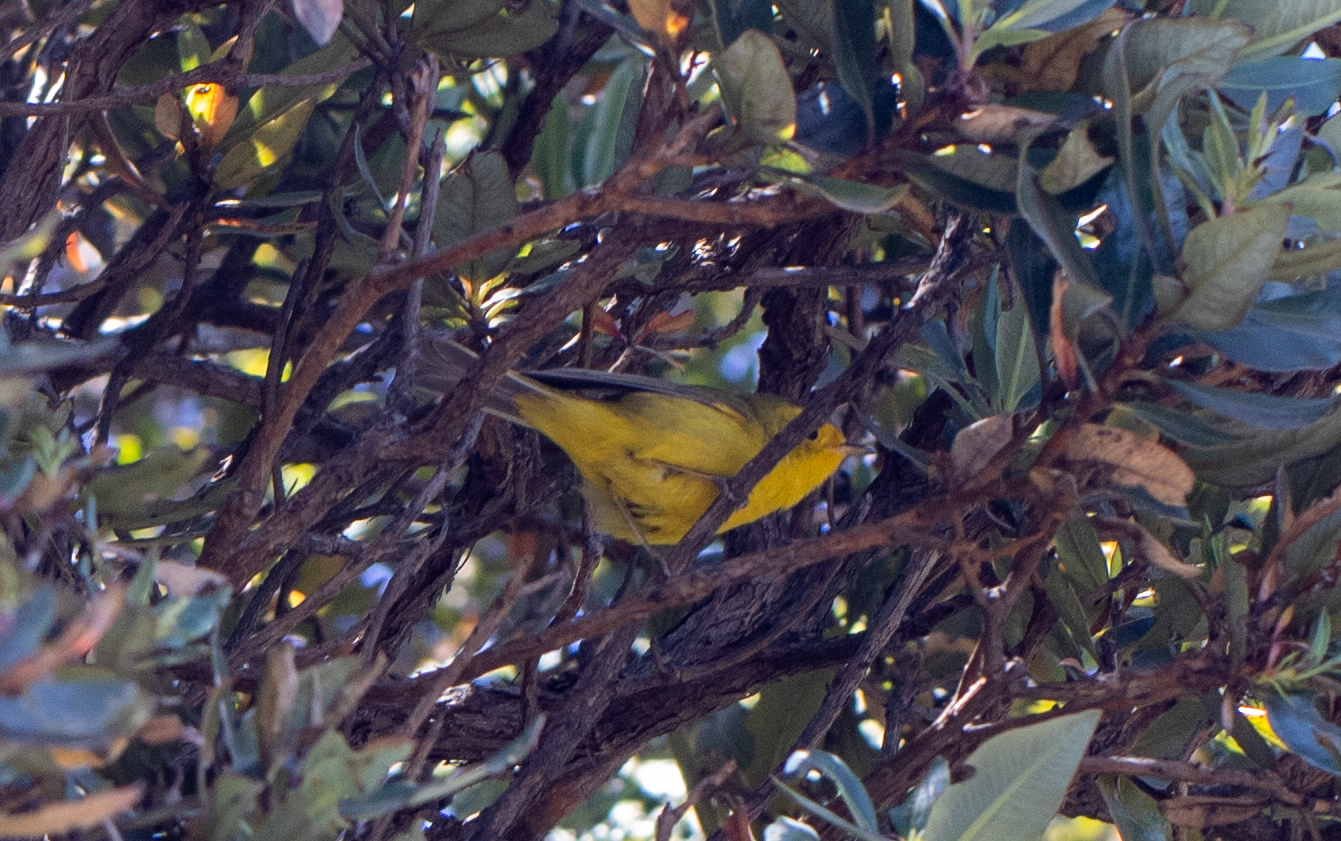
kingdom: Animalia
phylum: Chordata
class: Aves
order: Passeriformes
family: Parulidae
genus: Cardellina
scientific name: Cardellina pusilla
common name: Wilson's warbler
